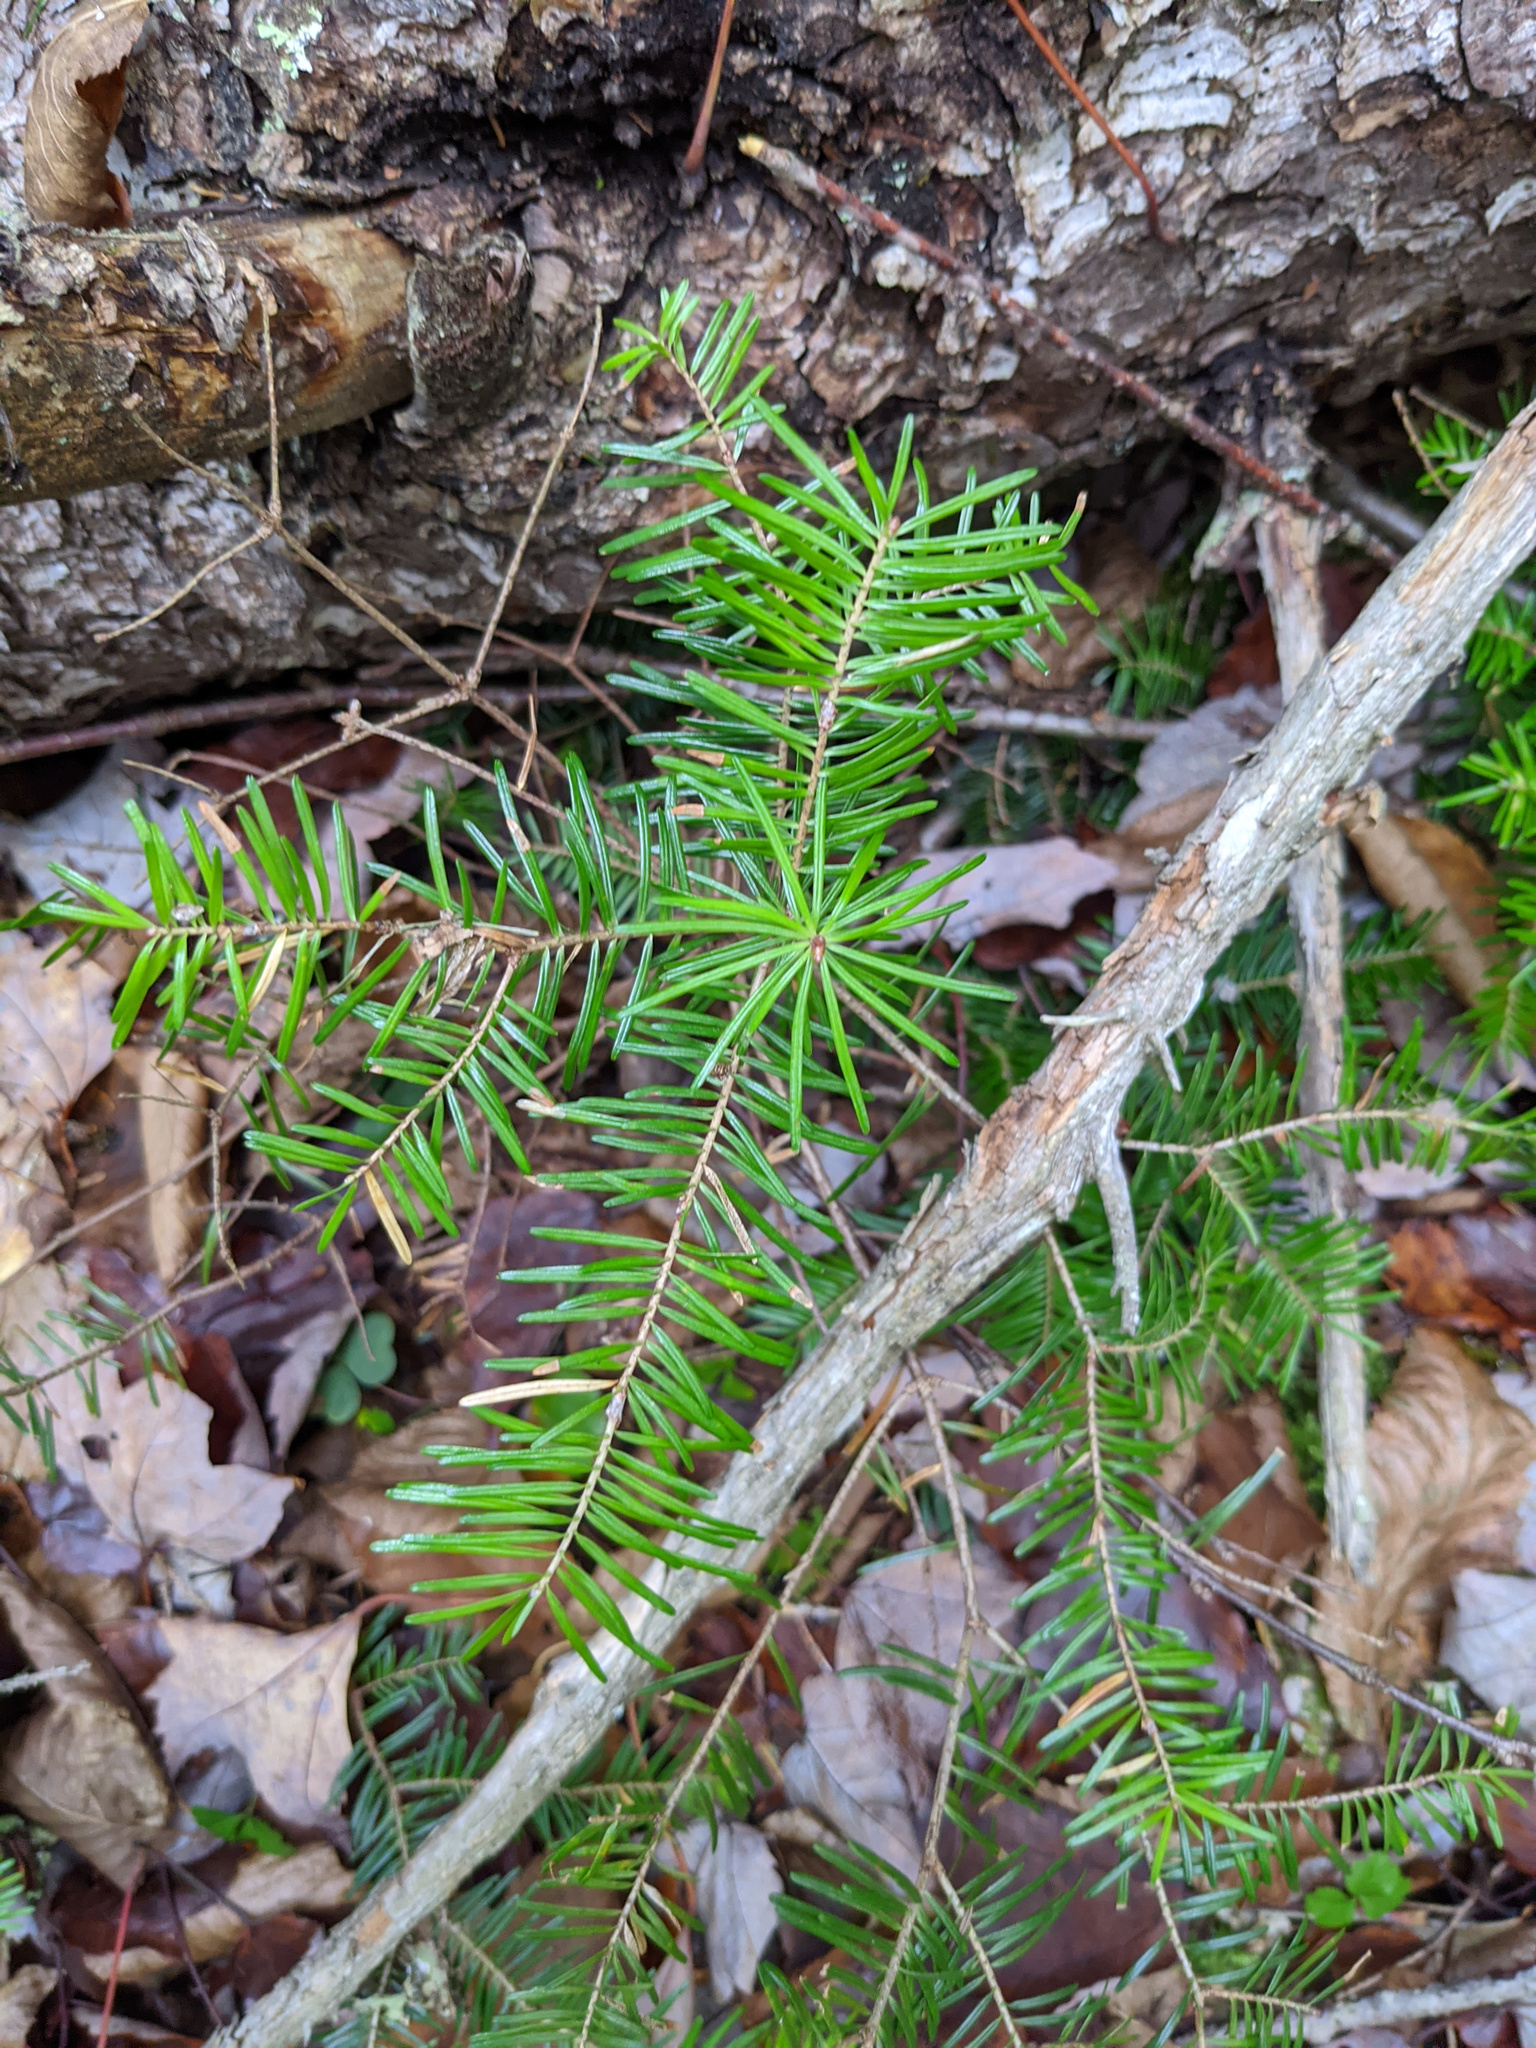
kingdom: Plantae
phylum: Tracheophyta
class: Pinopsida
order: Pinales
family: Pinaceae
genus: Abies
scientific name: Abies balsamea
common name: Balsam fir
